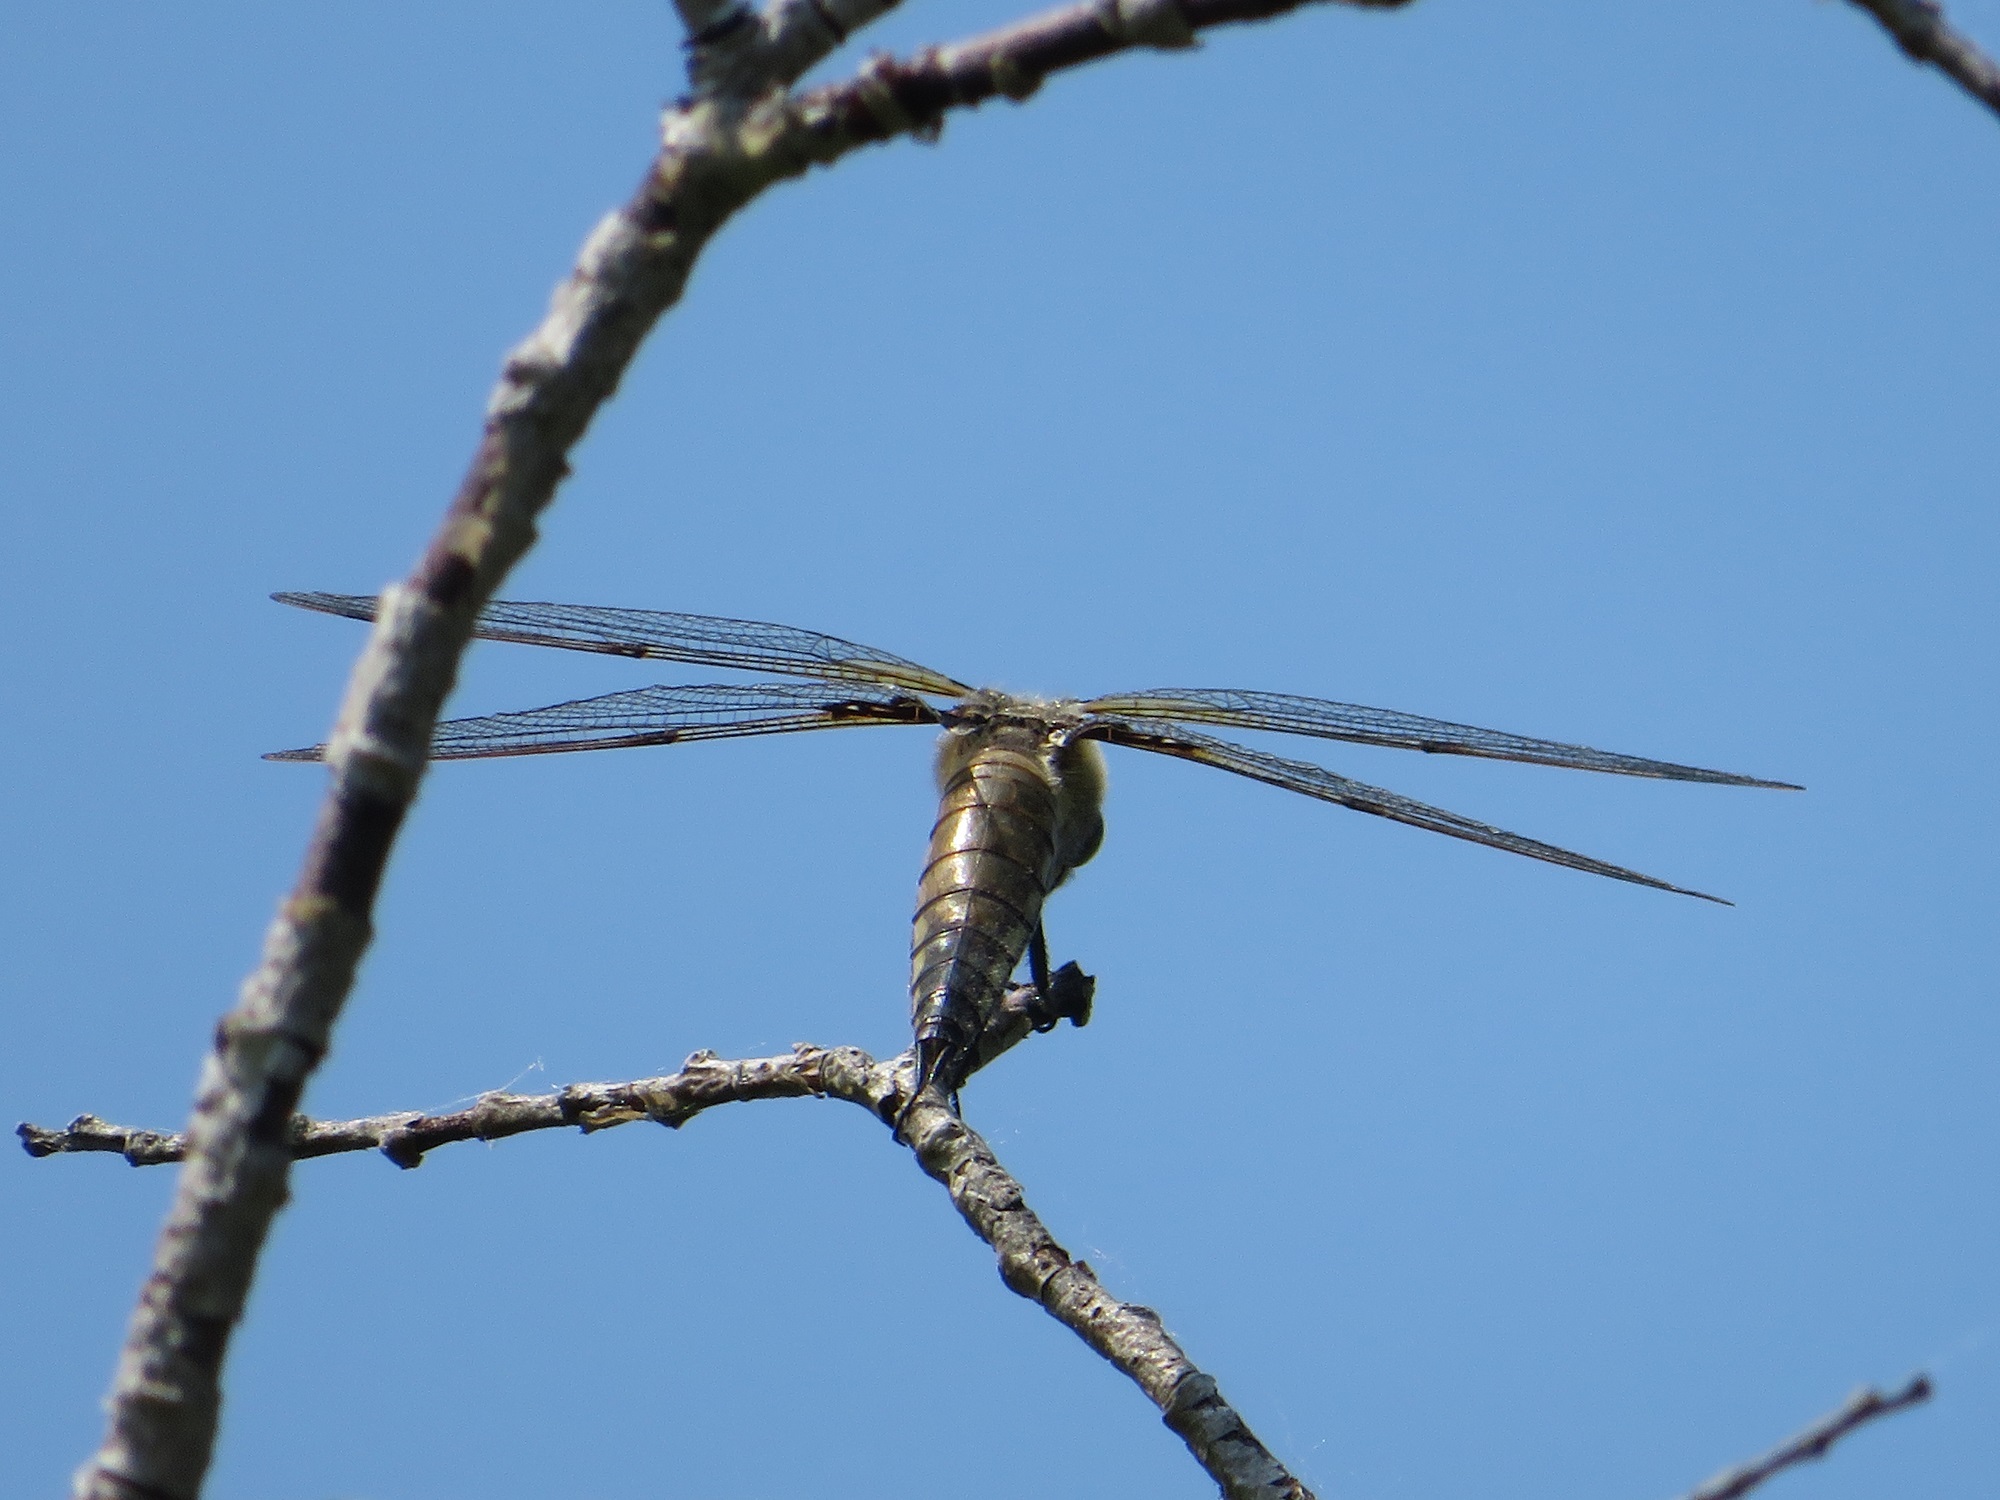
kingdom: Animalia
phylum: Arthropoda
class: Insecta
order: Odonata
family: Libellulidae
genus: Libellula
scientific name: Libellula quadrimaculata
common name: Four-spotted chaser
